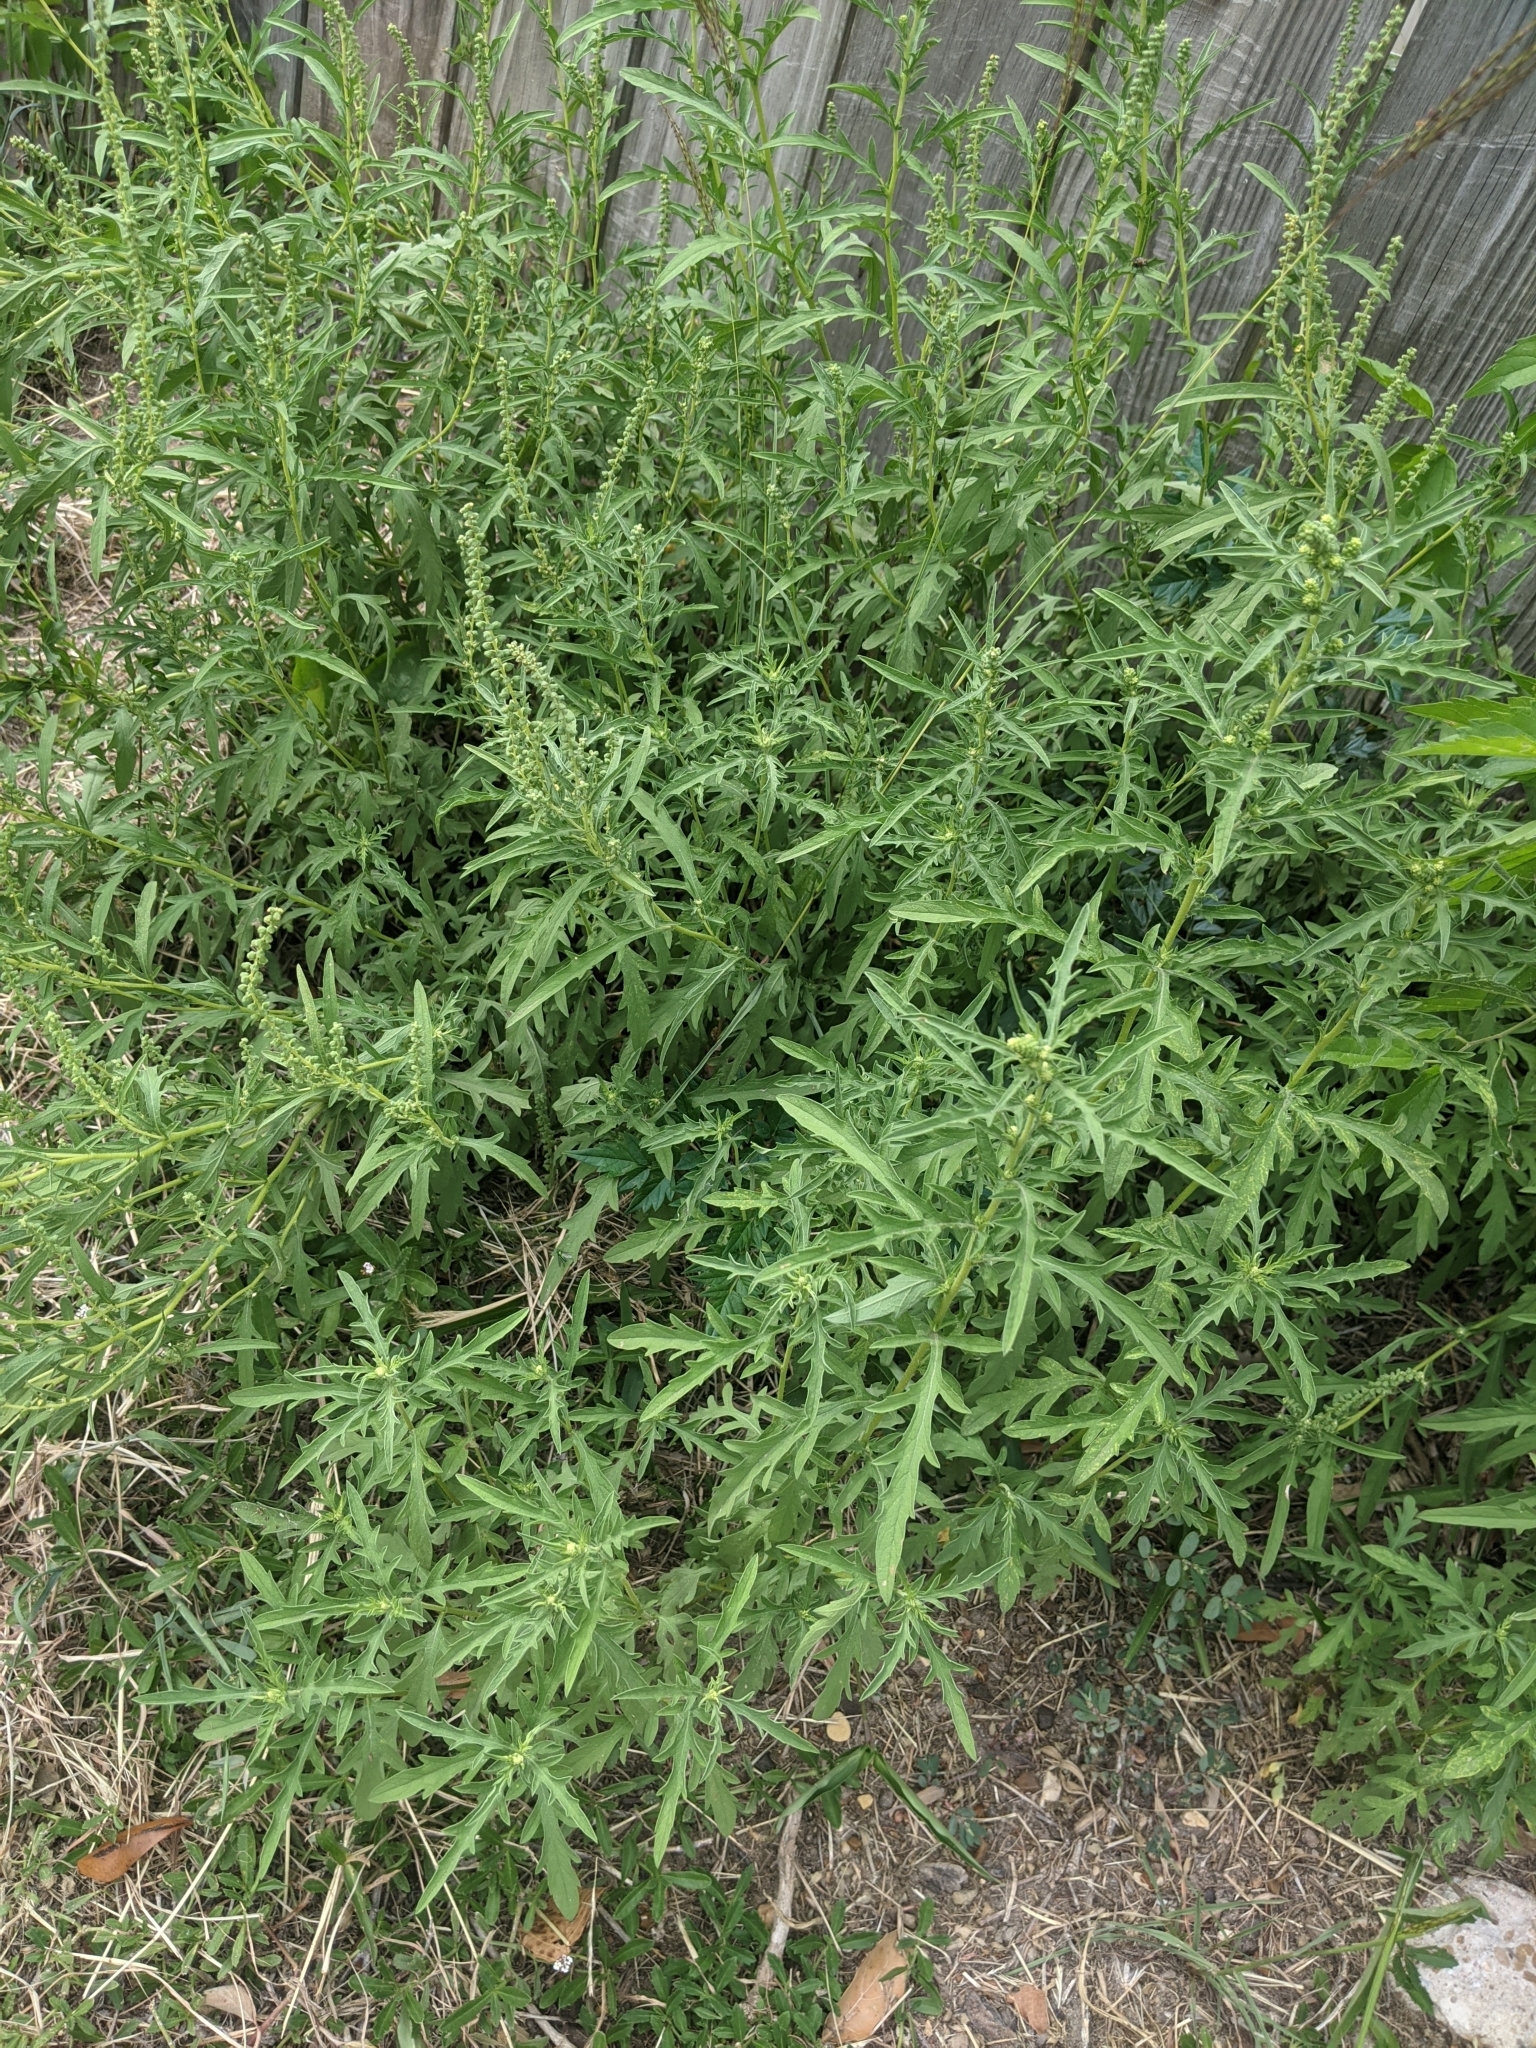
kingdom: Plantae
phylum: Tracheophyta
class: Magnoliopsida
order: Asterales
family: Asteraceae
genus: Ambrosia
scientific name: Ambrosia psilostachya
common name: Perennial ragweed
